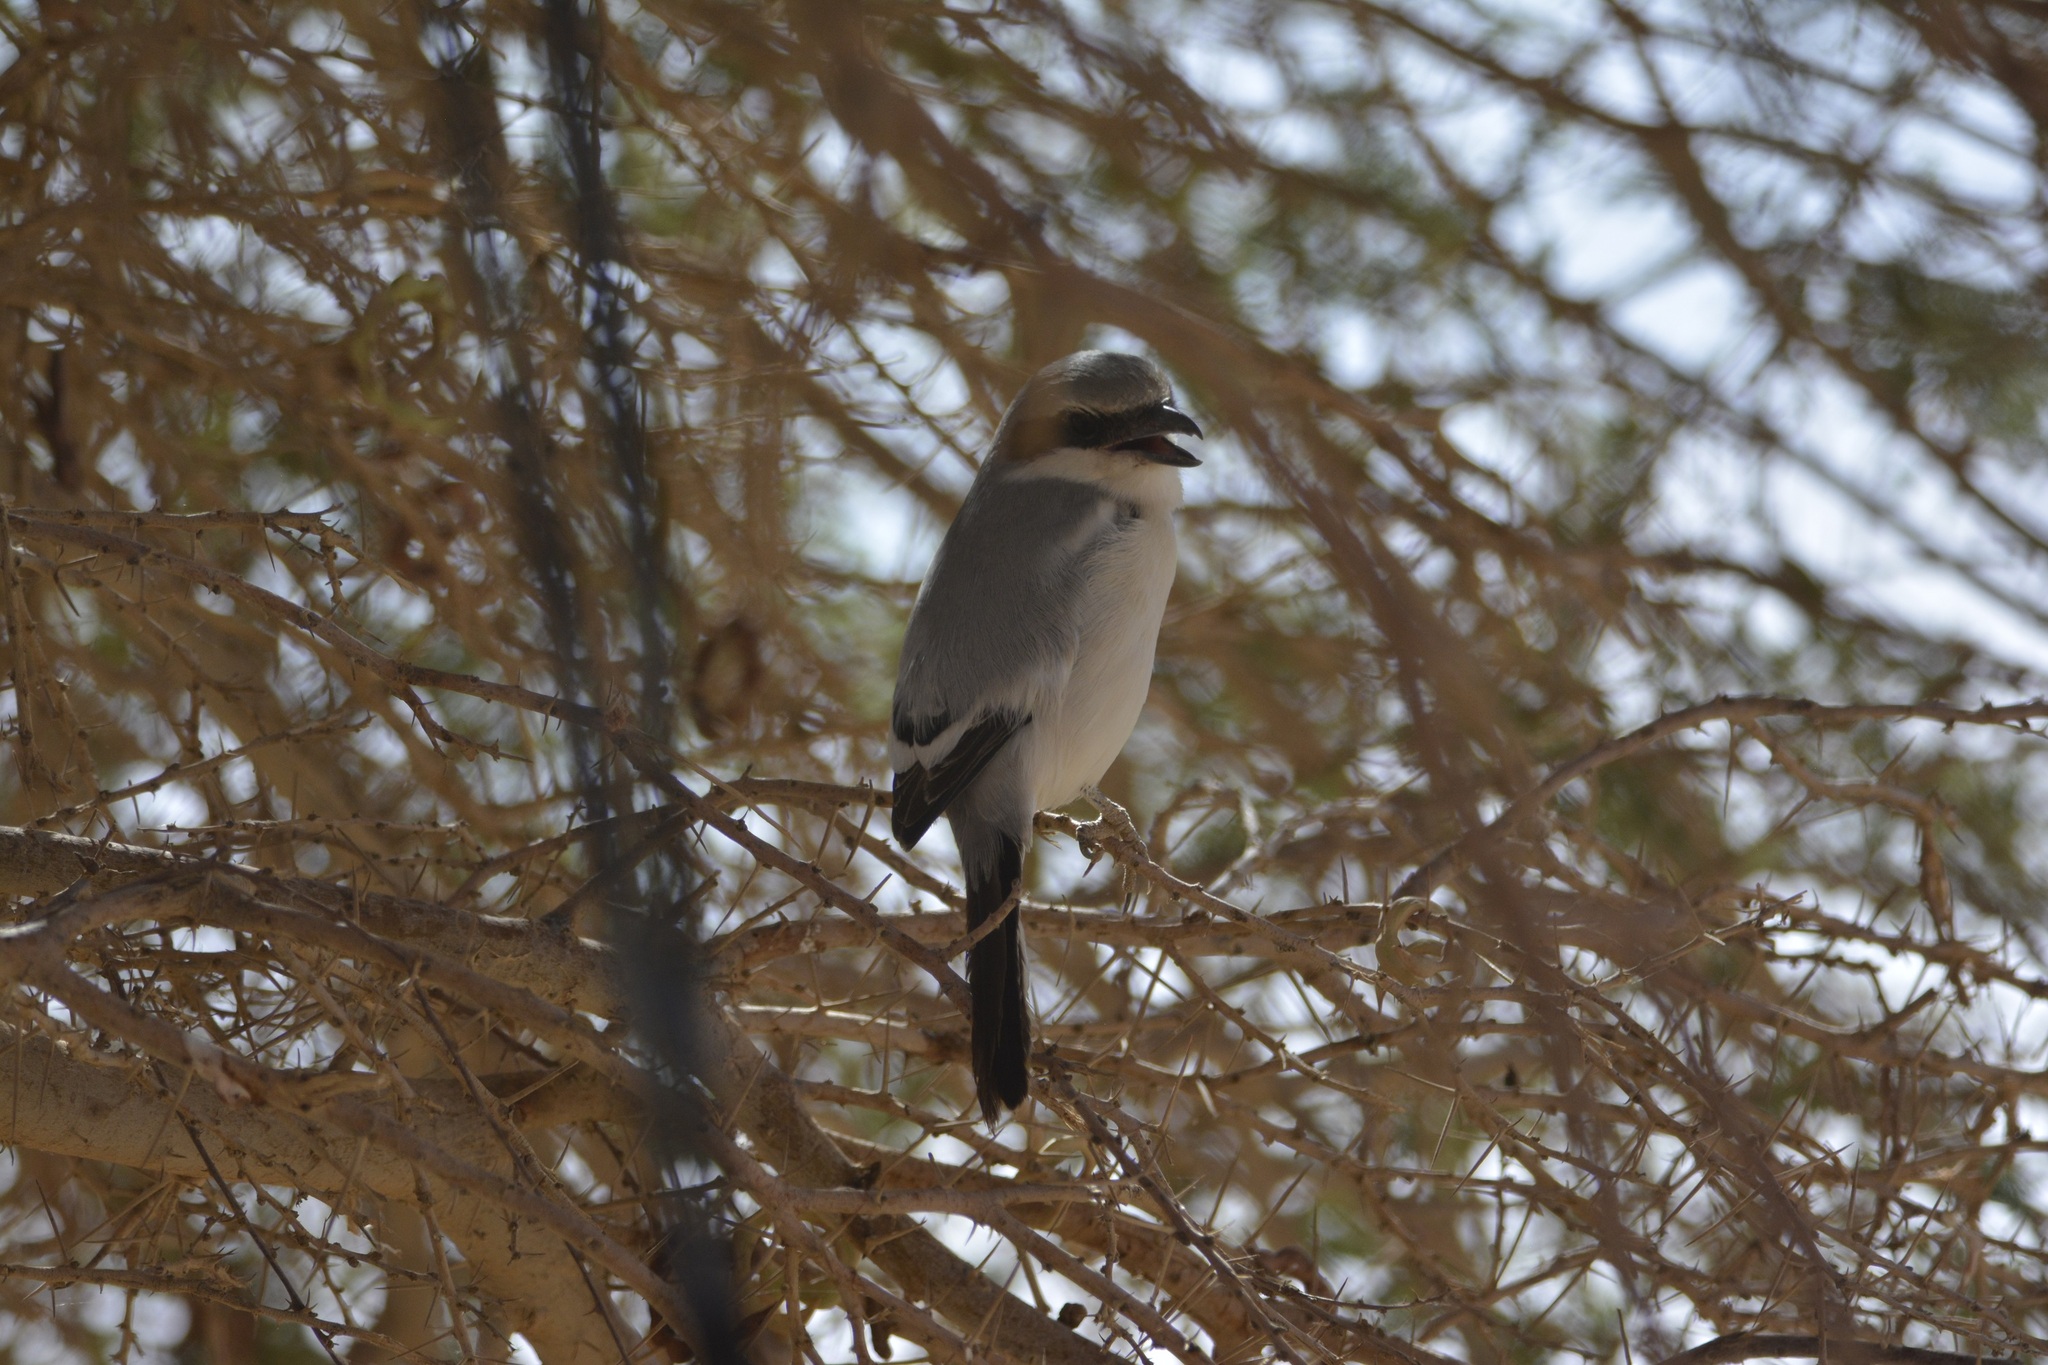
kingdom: Animalia
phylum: Chordata
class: Aves
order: Passeriformes
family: Laniidae
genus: Lanius
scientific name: Lanius excubitor
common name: Great grey shrike
